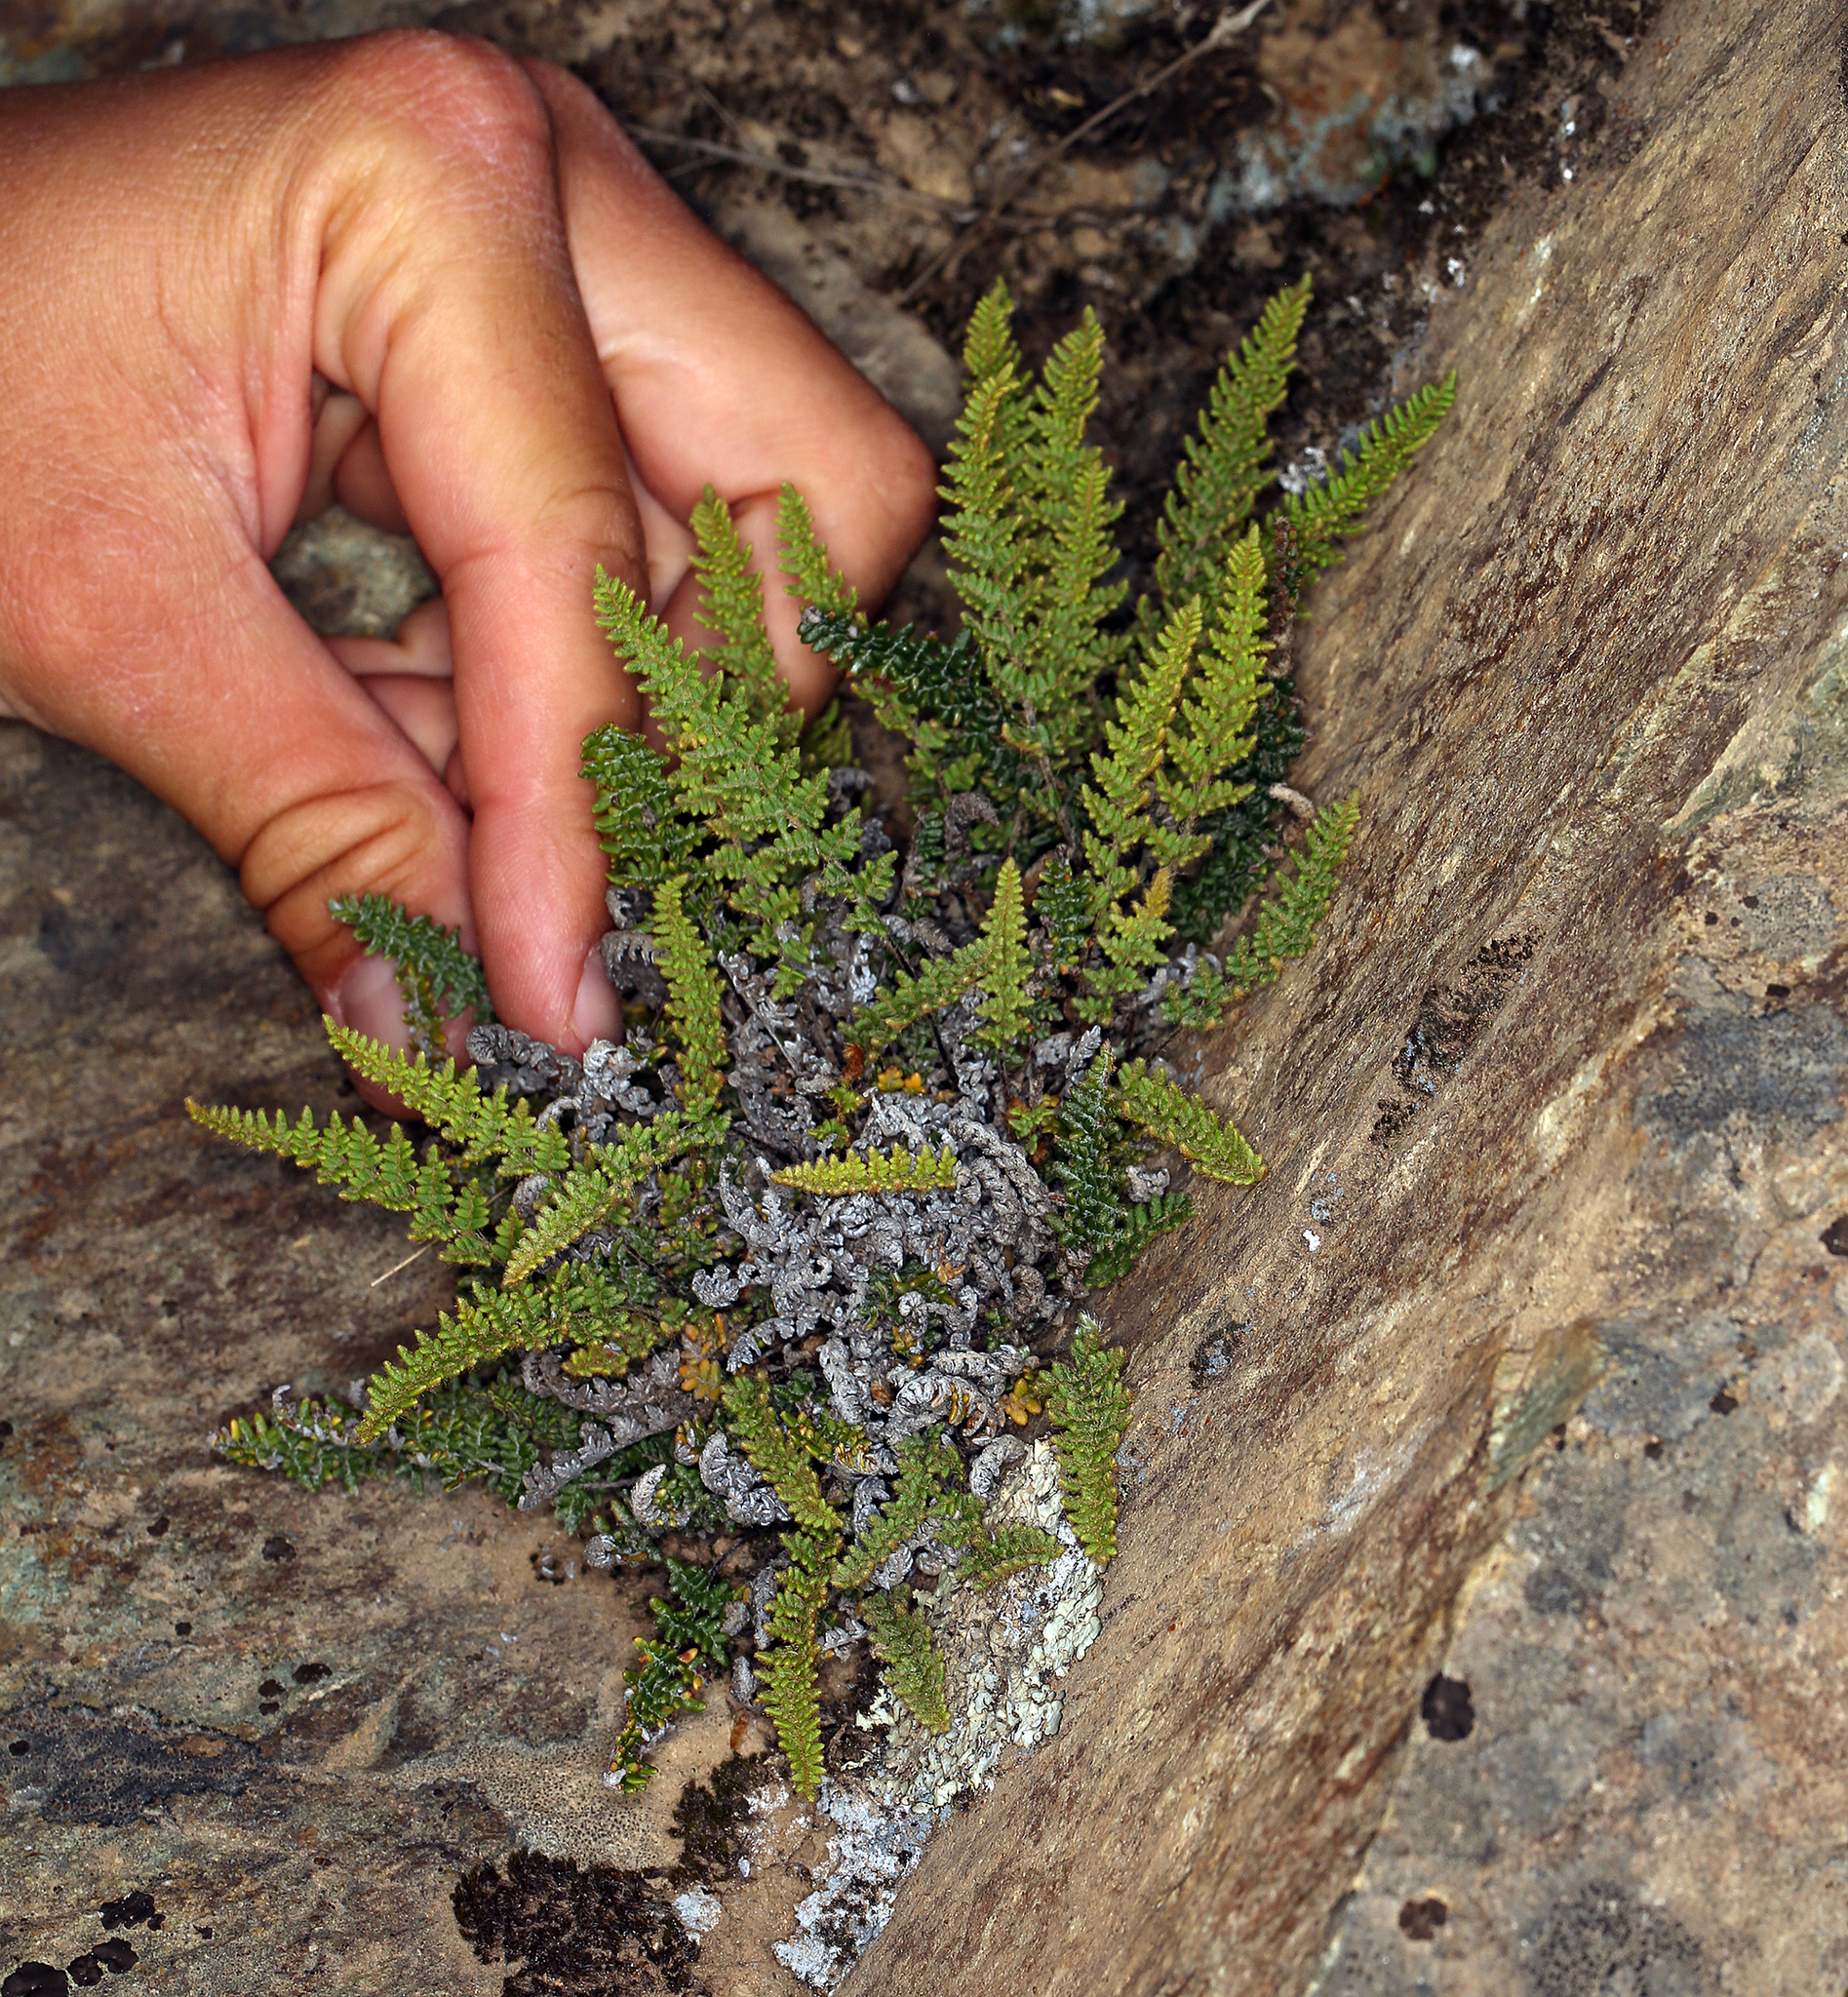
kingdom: Plantae
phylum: Tracheophyta
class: Polypodiopsida
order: Polypodiales
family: Pteridaceae
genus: Myriopteris
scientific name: Myriopteris gracillima
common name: Lace fern
